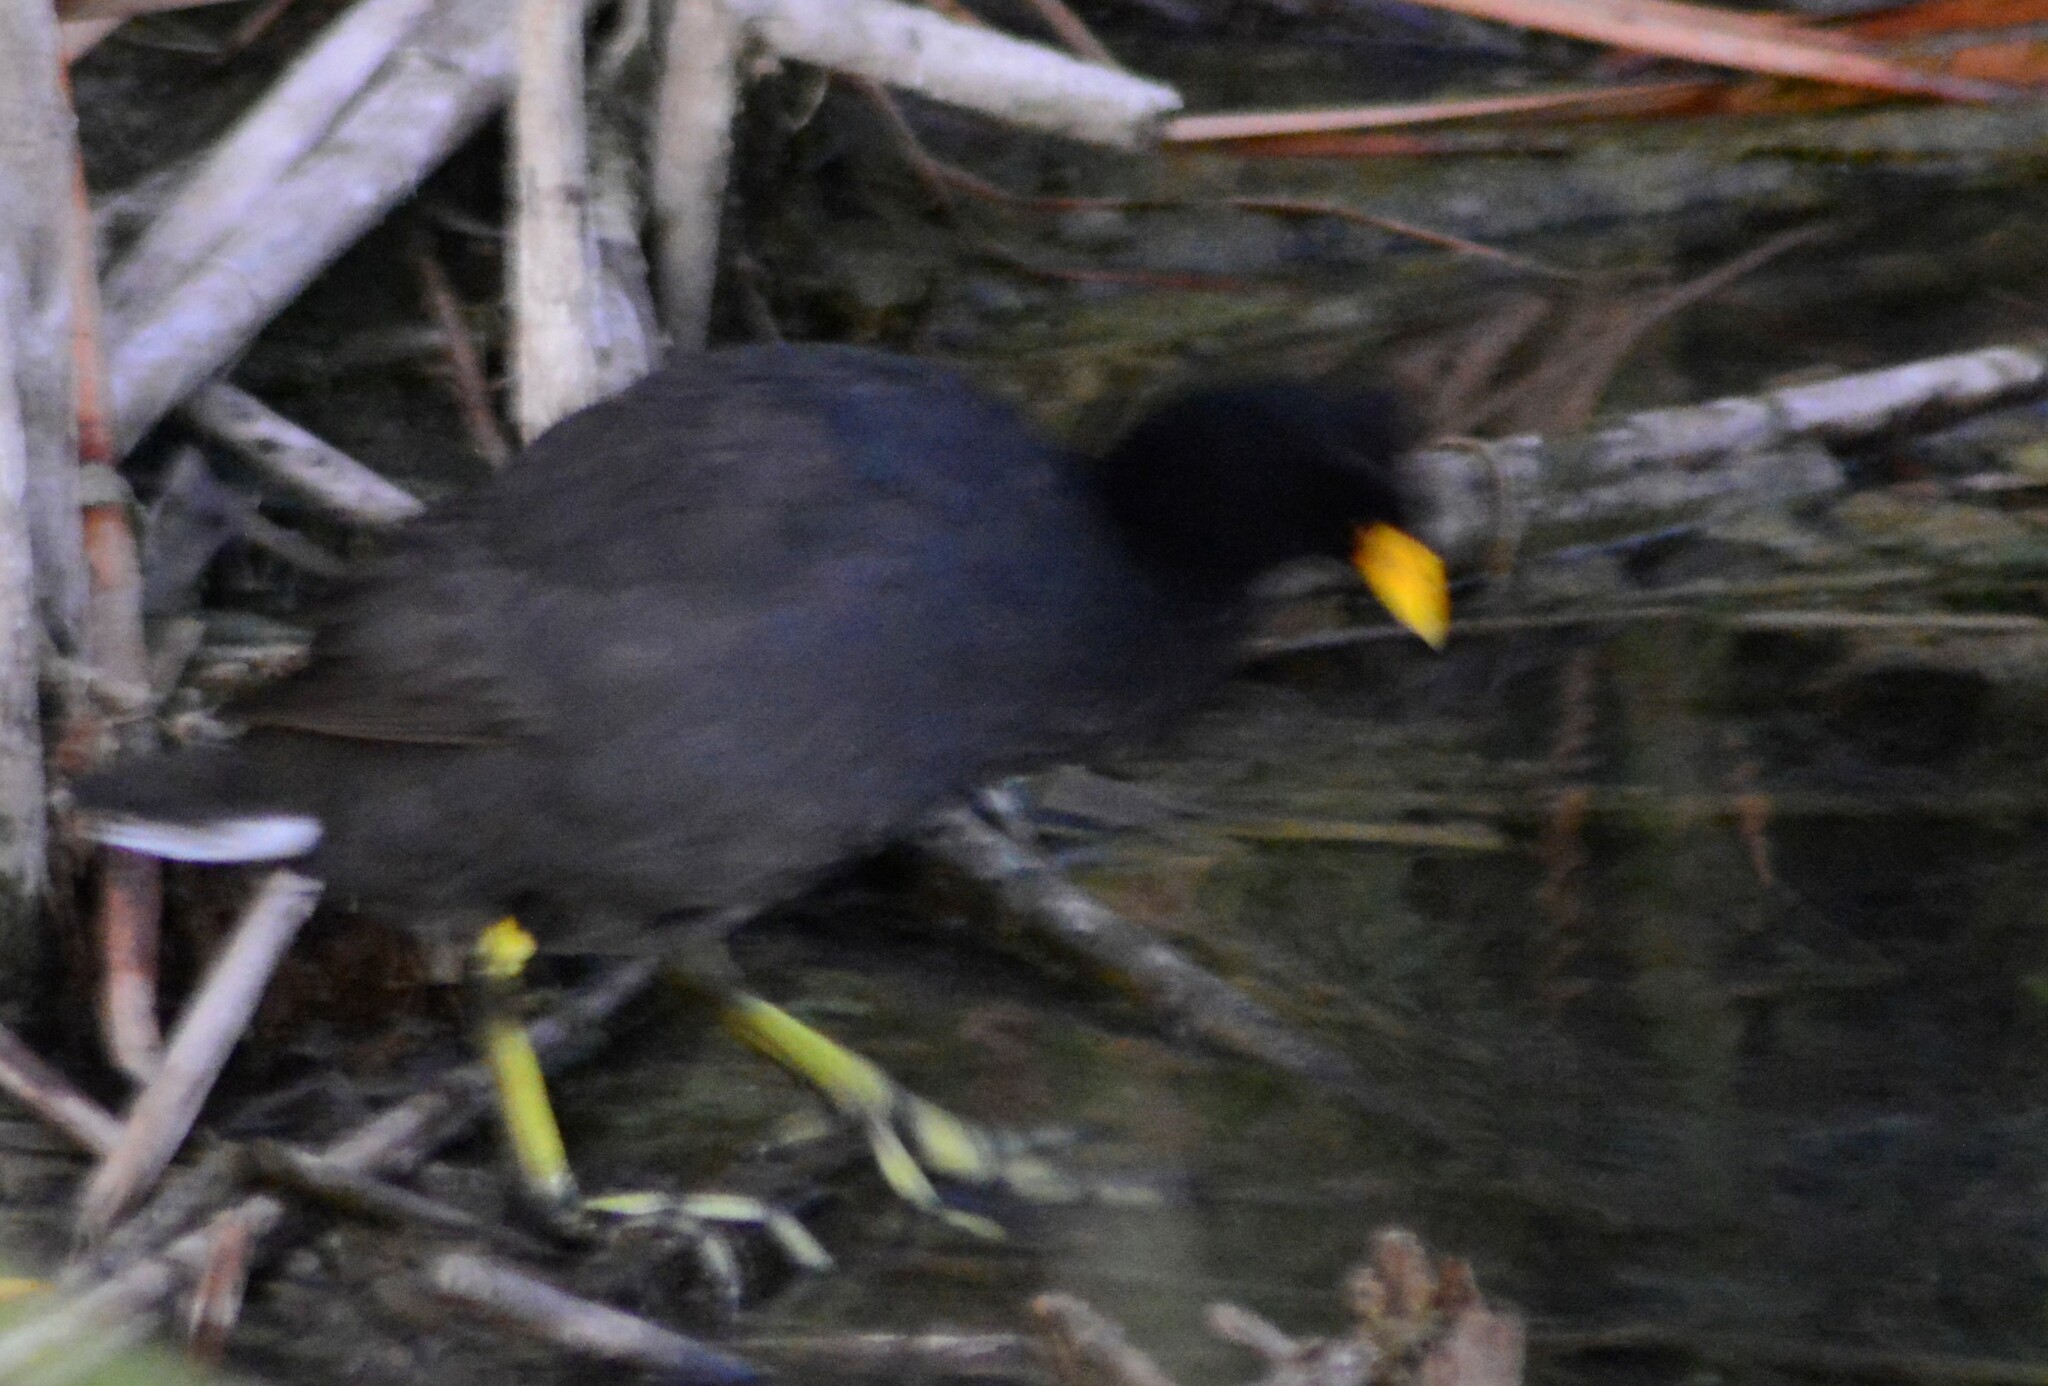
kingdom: Animalia
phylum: Chordata
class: Aves
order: Gruiformes
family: Rallidae
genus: Fulica
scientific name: Fulica rufifrons
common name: Red-fronted coot
